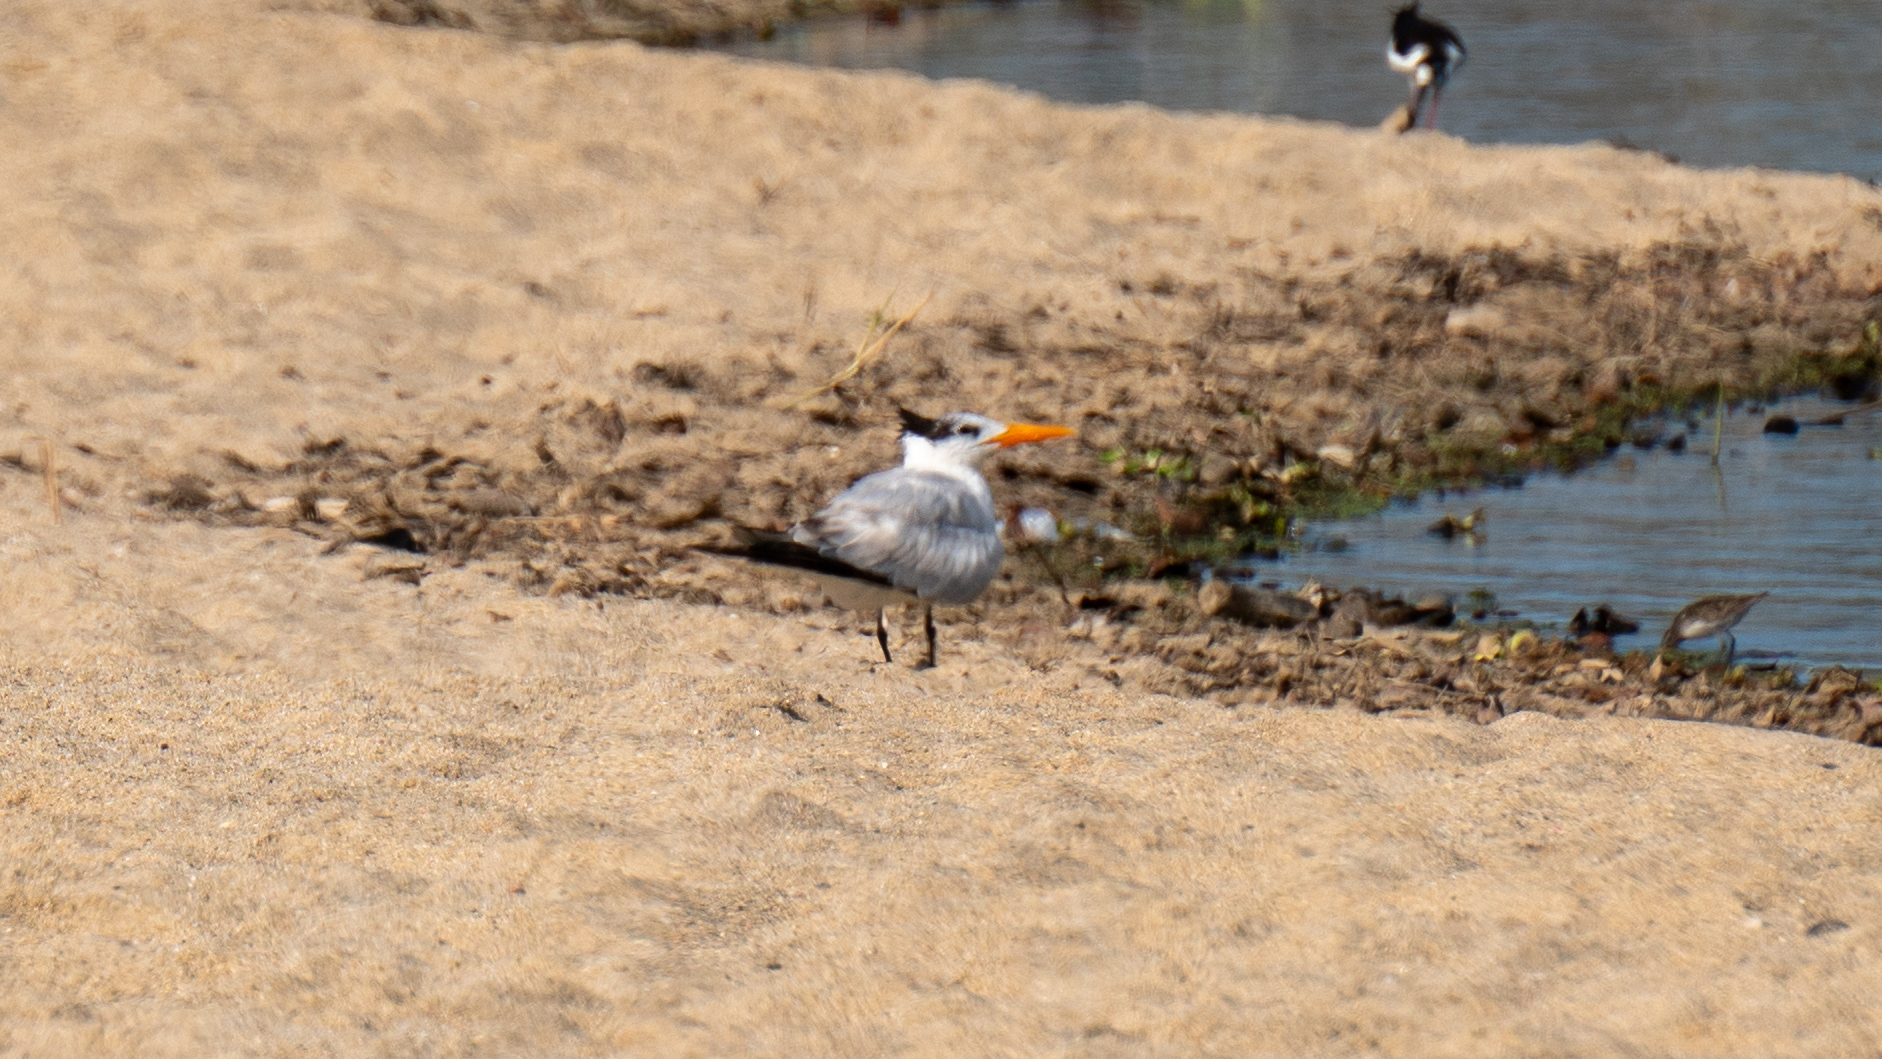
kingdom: Animalia
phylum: Chordata
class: Aves
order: Charadriiformes
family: Laridae
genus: Thalasseus
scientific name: Thalasseus maximus
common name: Royal tern
